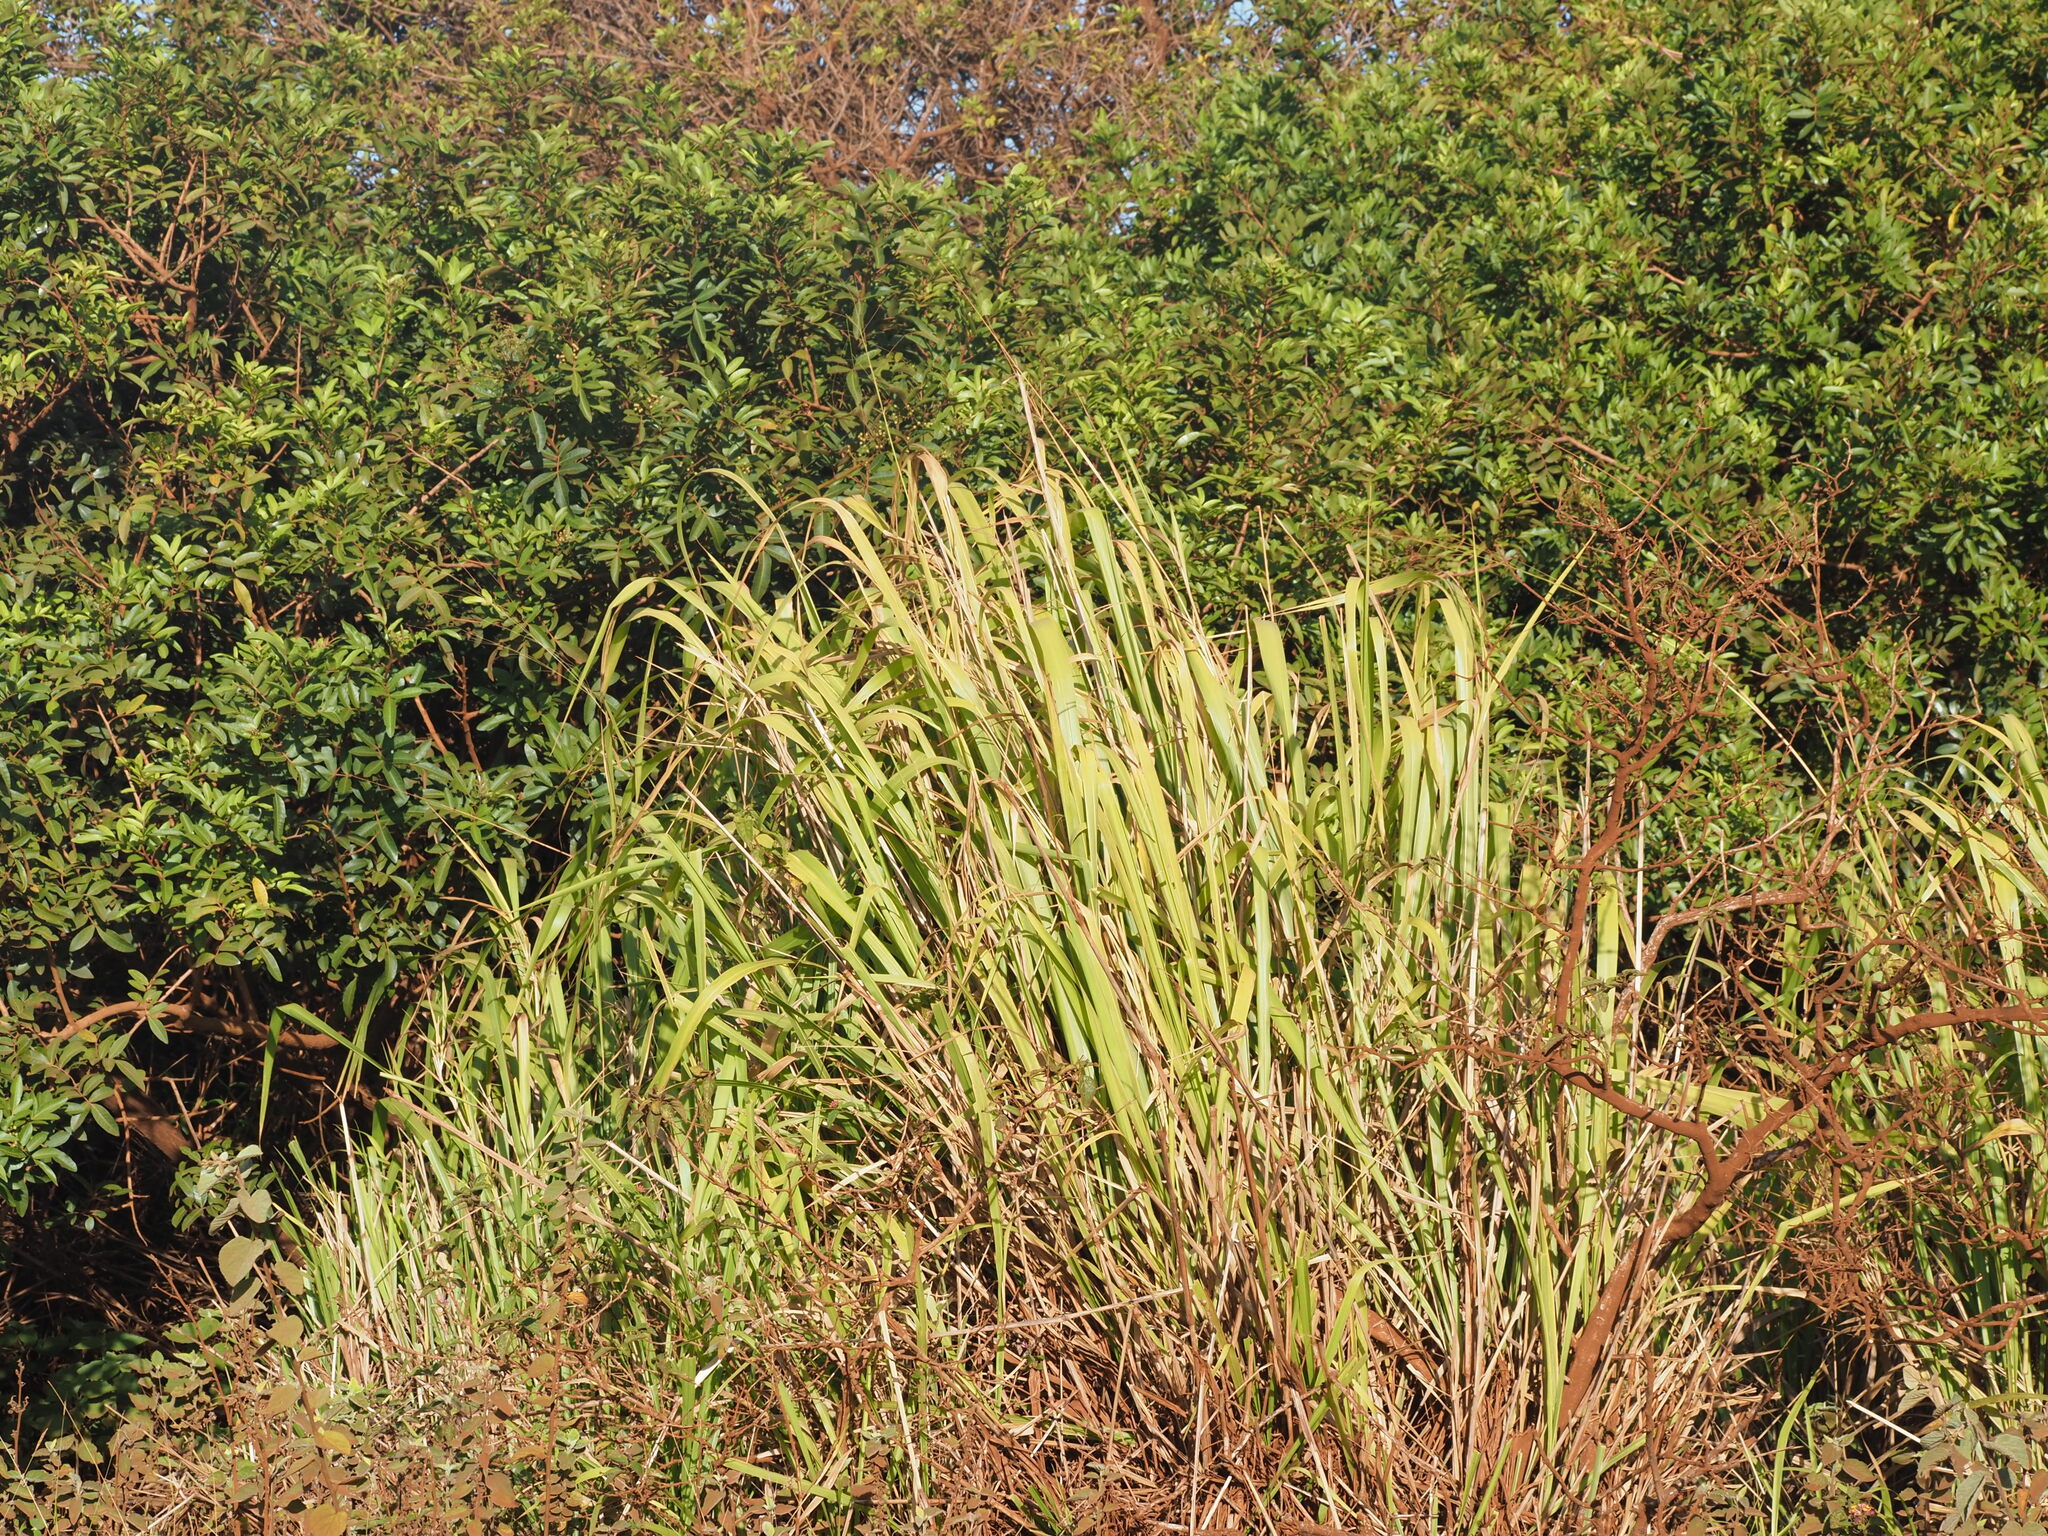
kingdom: Plantae
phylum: Tracheophyta
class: Liliopsida
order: Poales
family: Poaceae
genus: Megathyrsus
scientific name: Megathyrsus maximus
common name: Guineagrass
